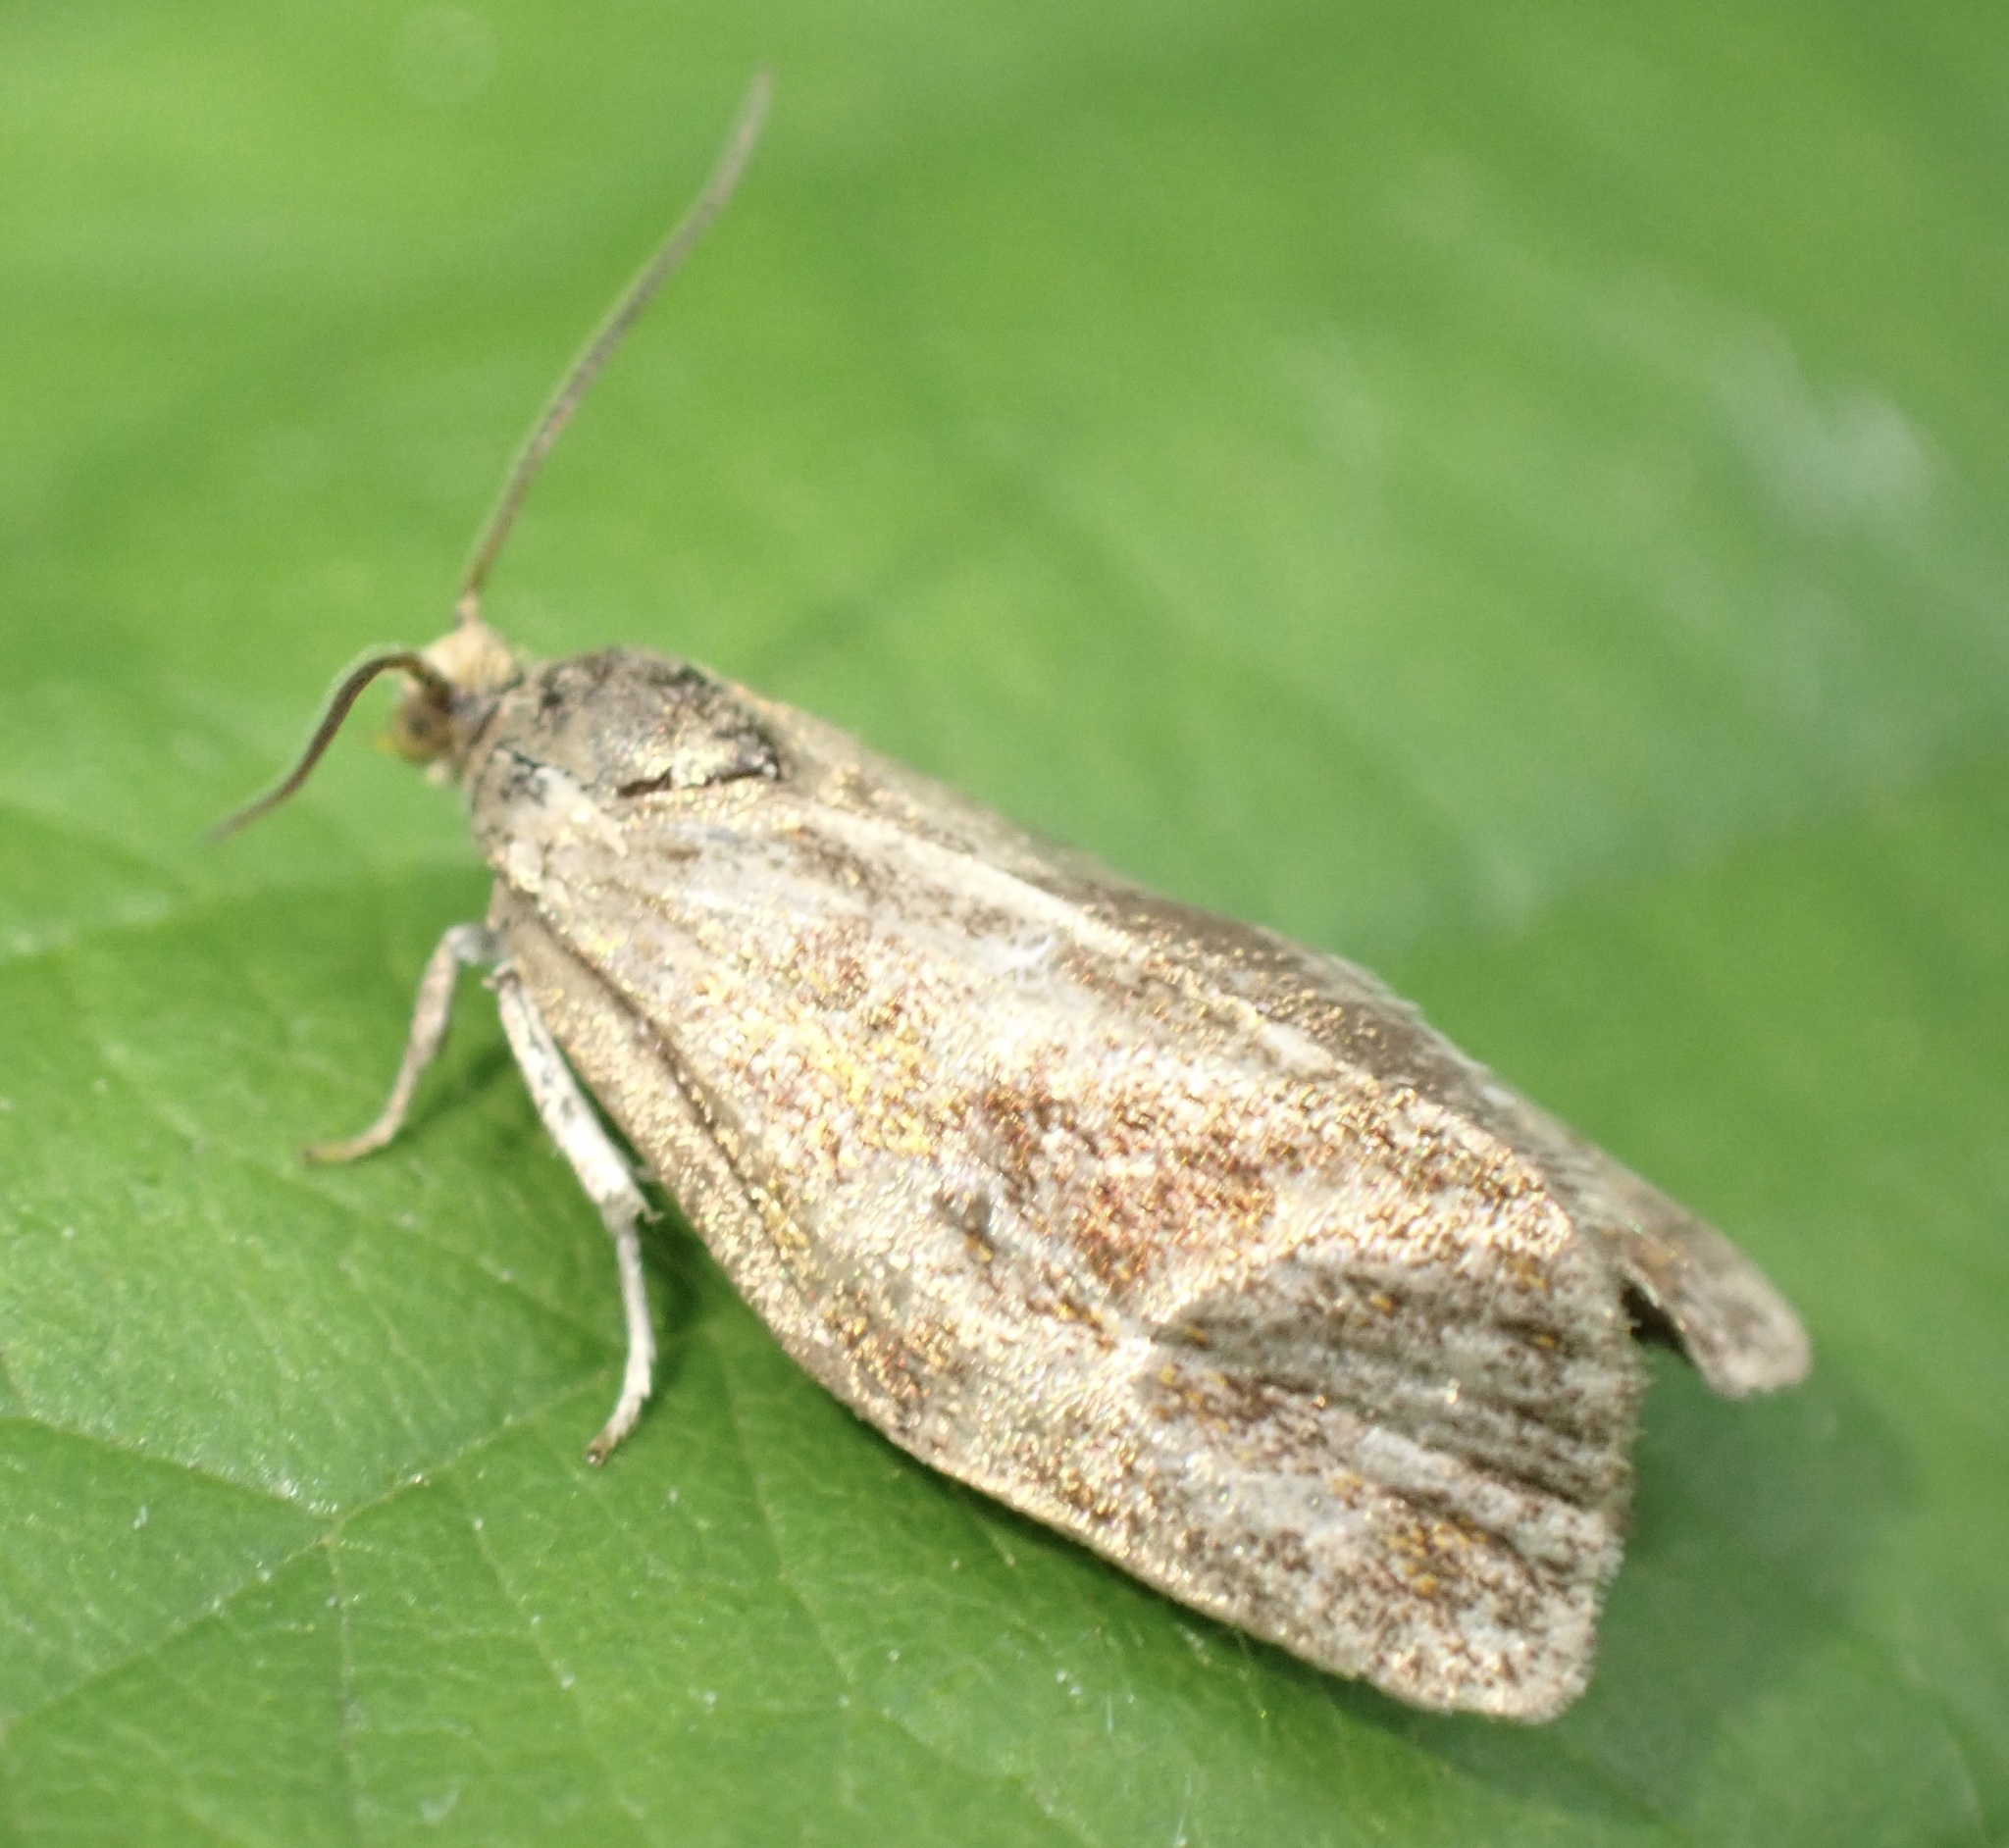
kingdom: Animalia
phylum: Arthropoda
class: Insecta
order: Lepidoptera
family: Tortricidae
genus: Ptycholoma
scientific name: Ptycholoma lecheana
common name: Leches twist moth
